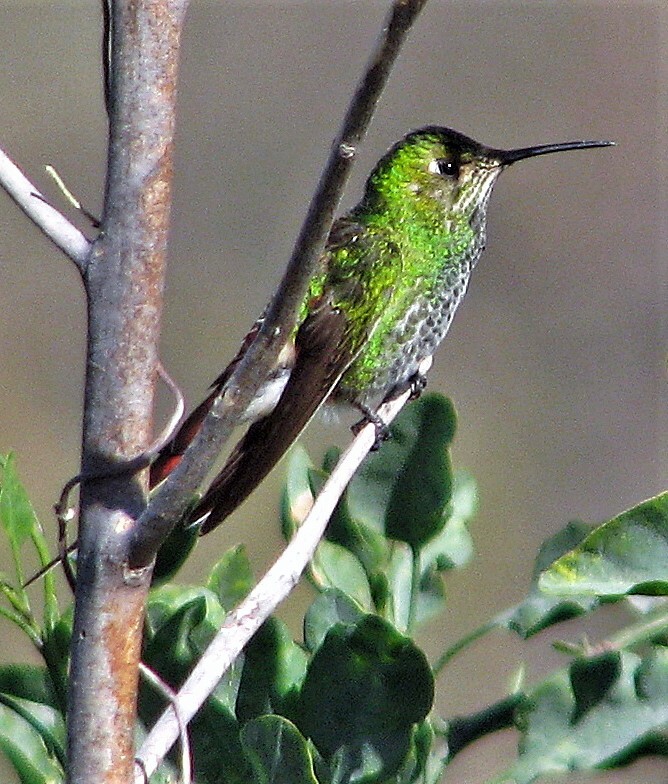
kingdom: Animalia
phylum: Chordata
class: Aves
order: Apodiformes
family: Trochilidae
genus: Sappho
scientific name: Sappho sparganurus
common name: Red-tailed comet
